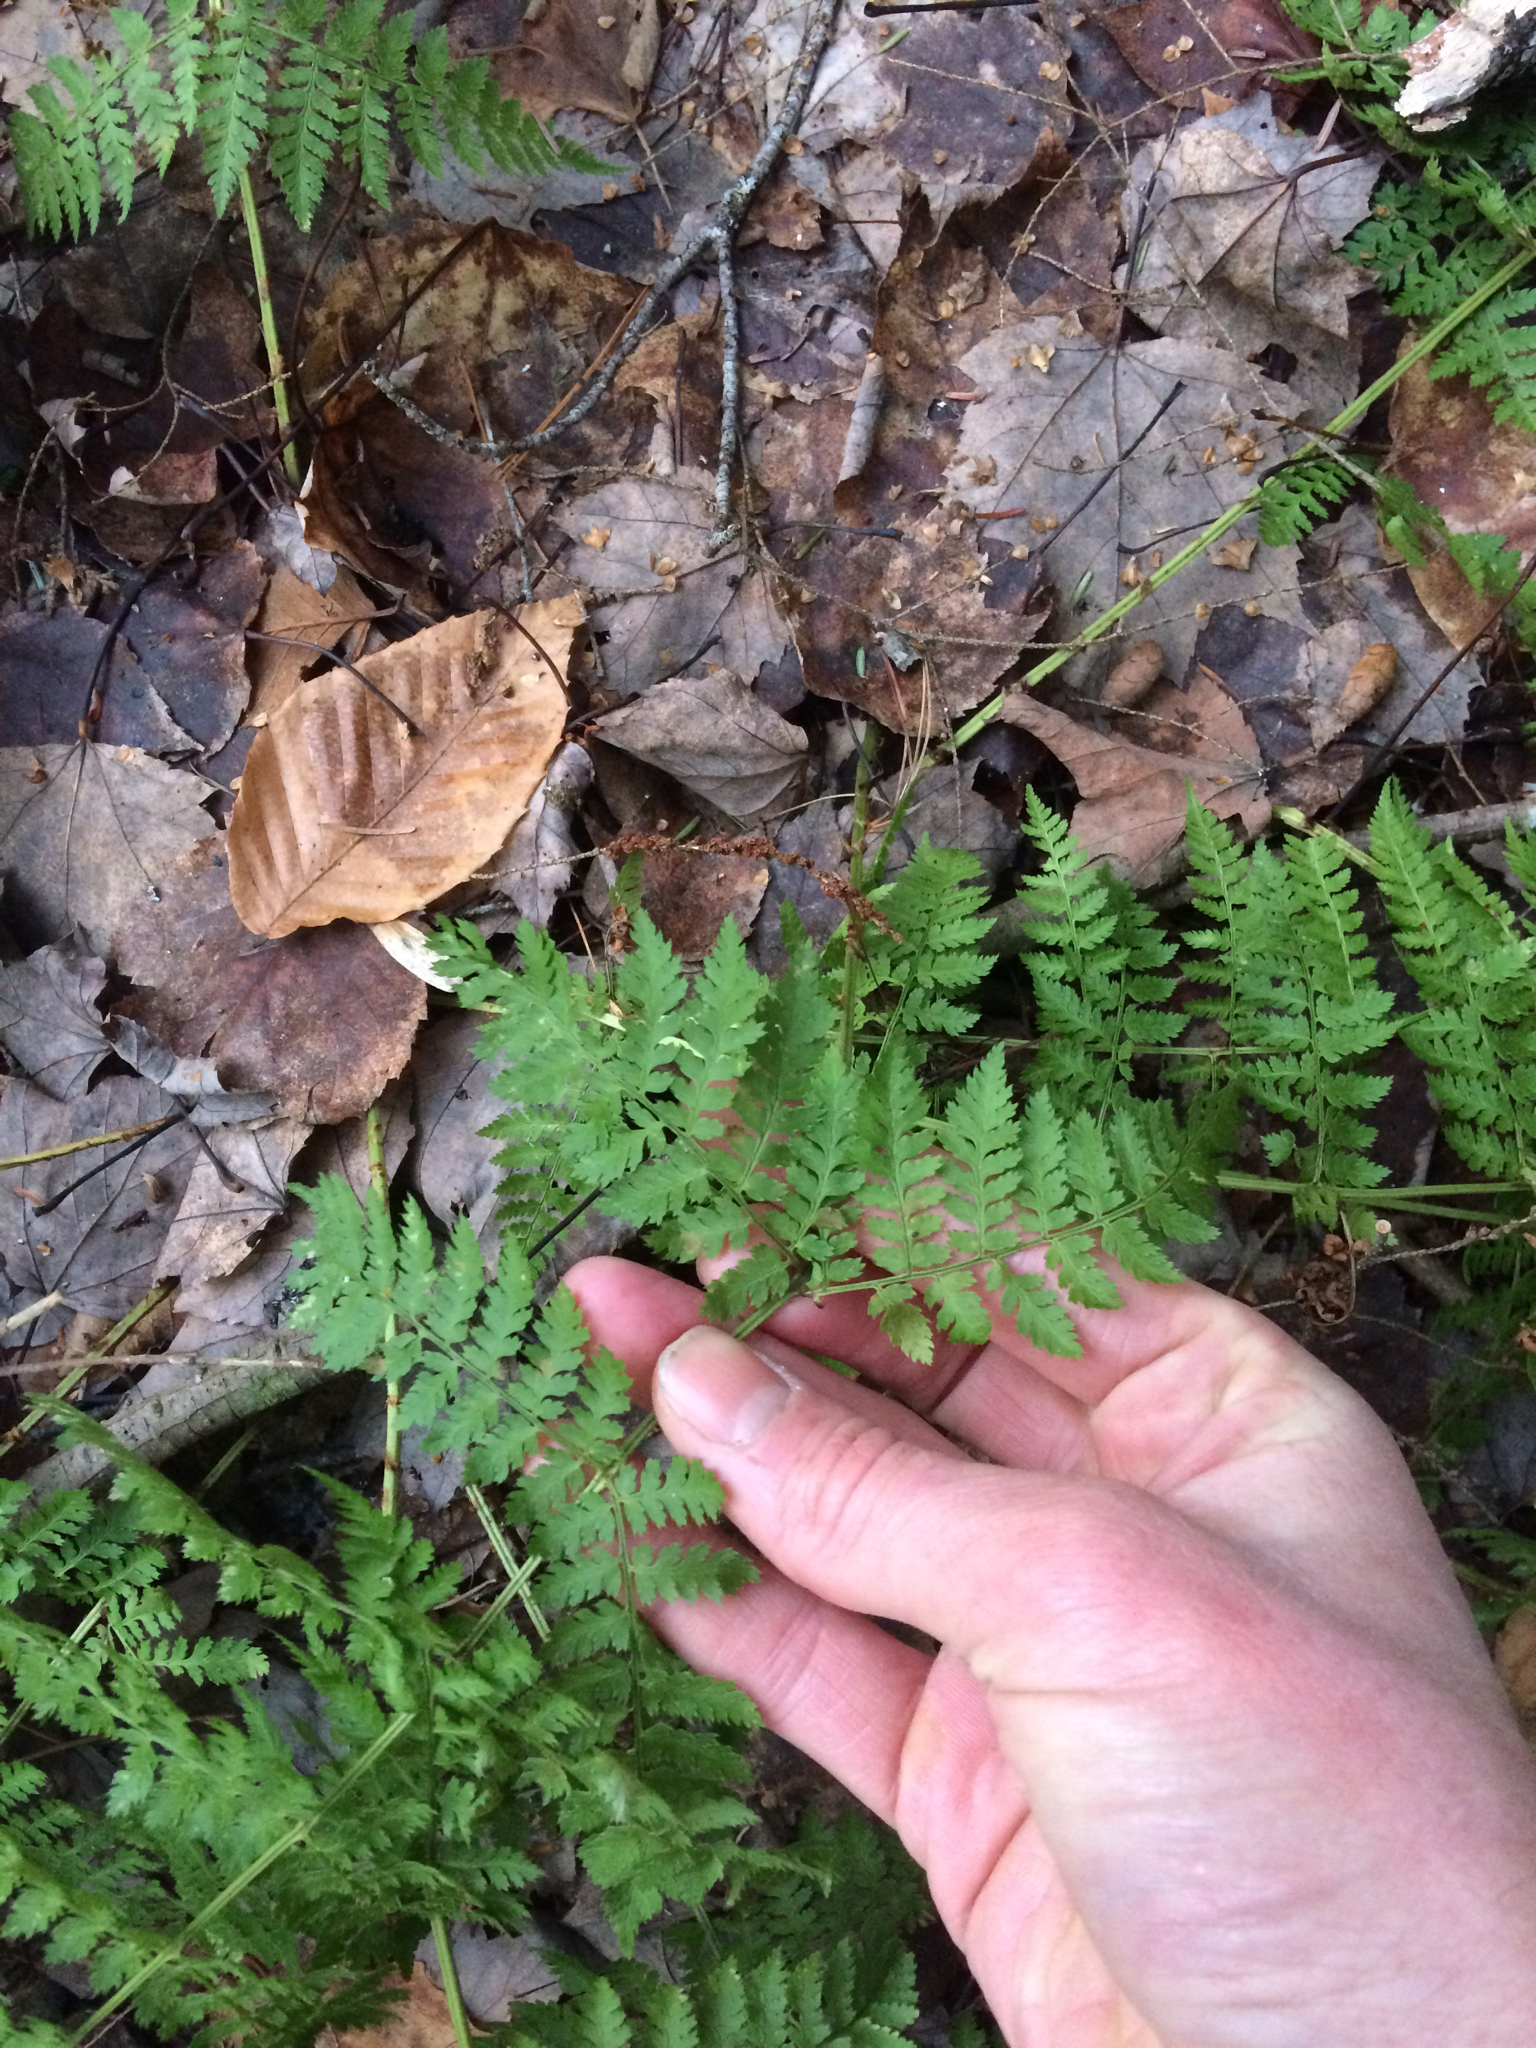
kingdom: Plantae
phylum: Tracheophyta
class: Polypodiopsida
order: Polypodiales
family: Dryopteridaceae
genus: Dryopteris
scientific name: Dryopteris intermedia
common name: Evergreen wood fern
